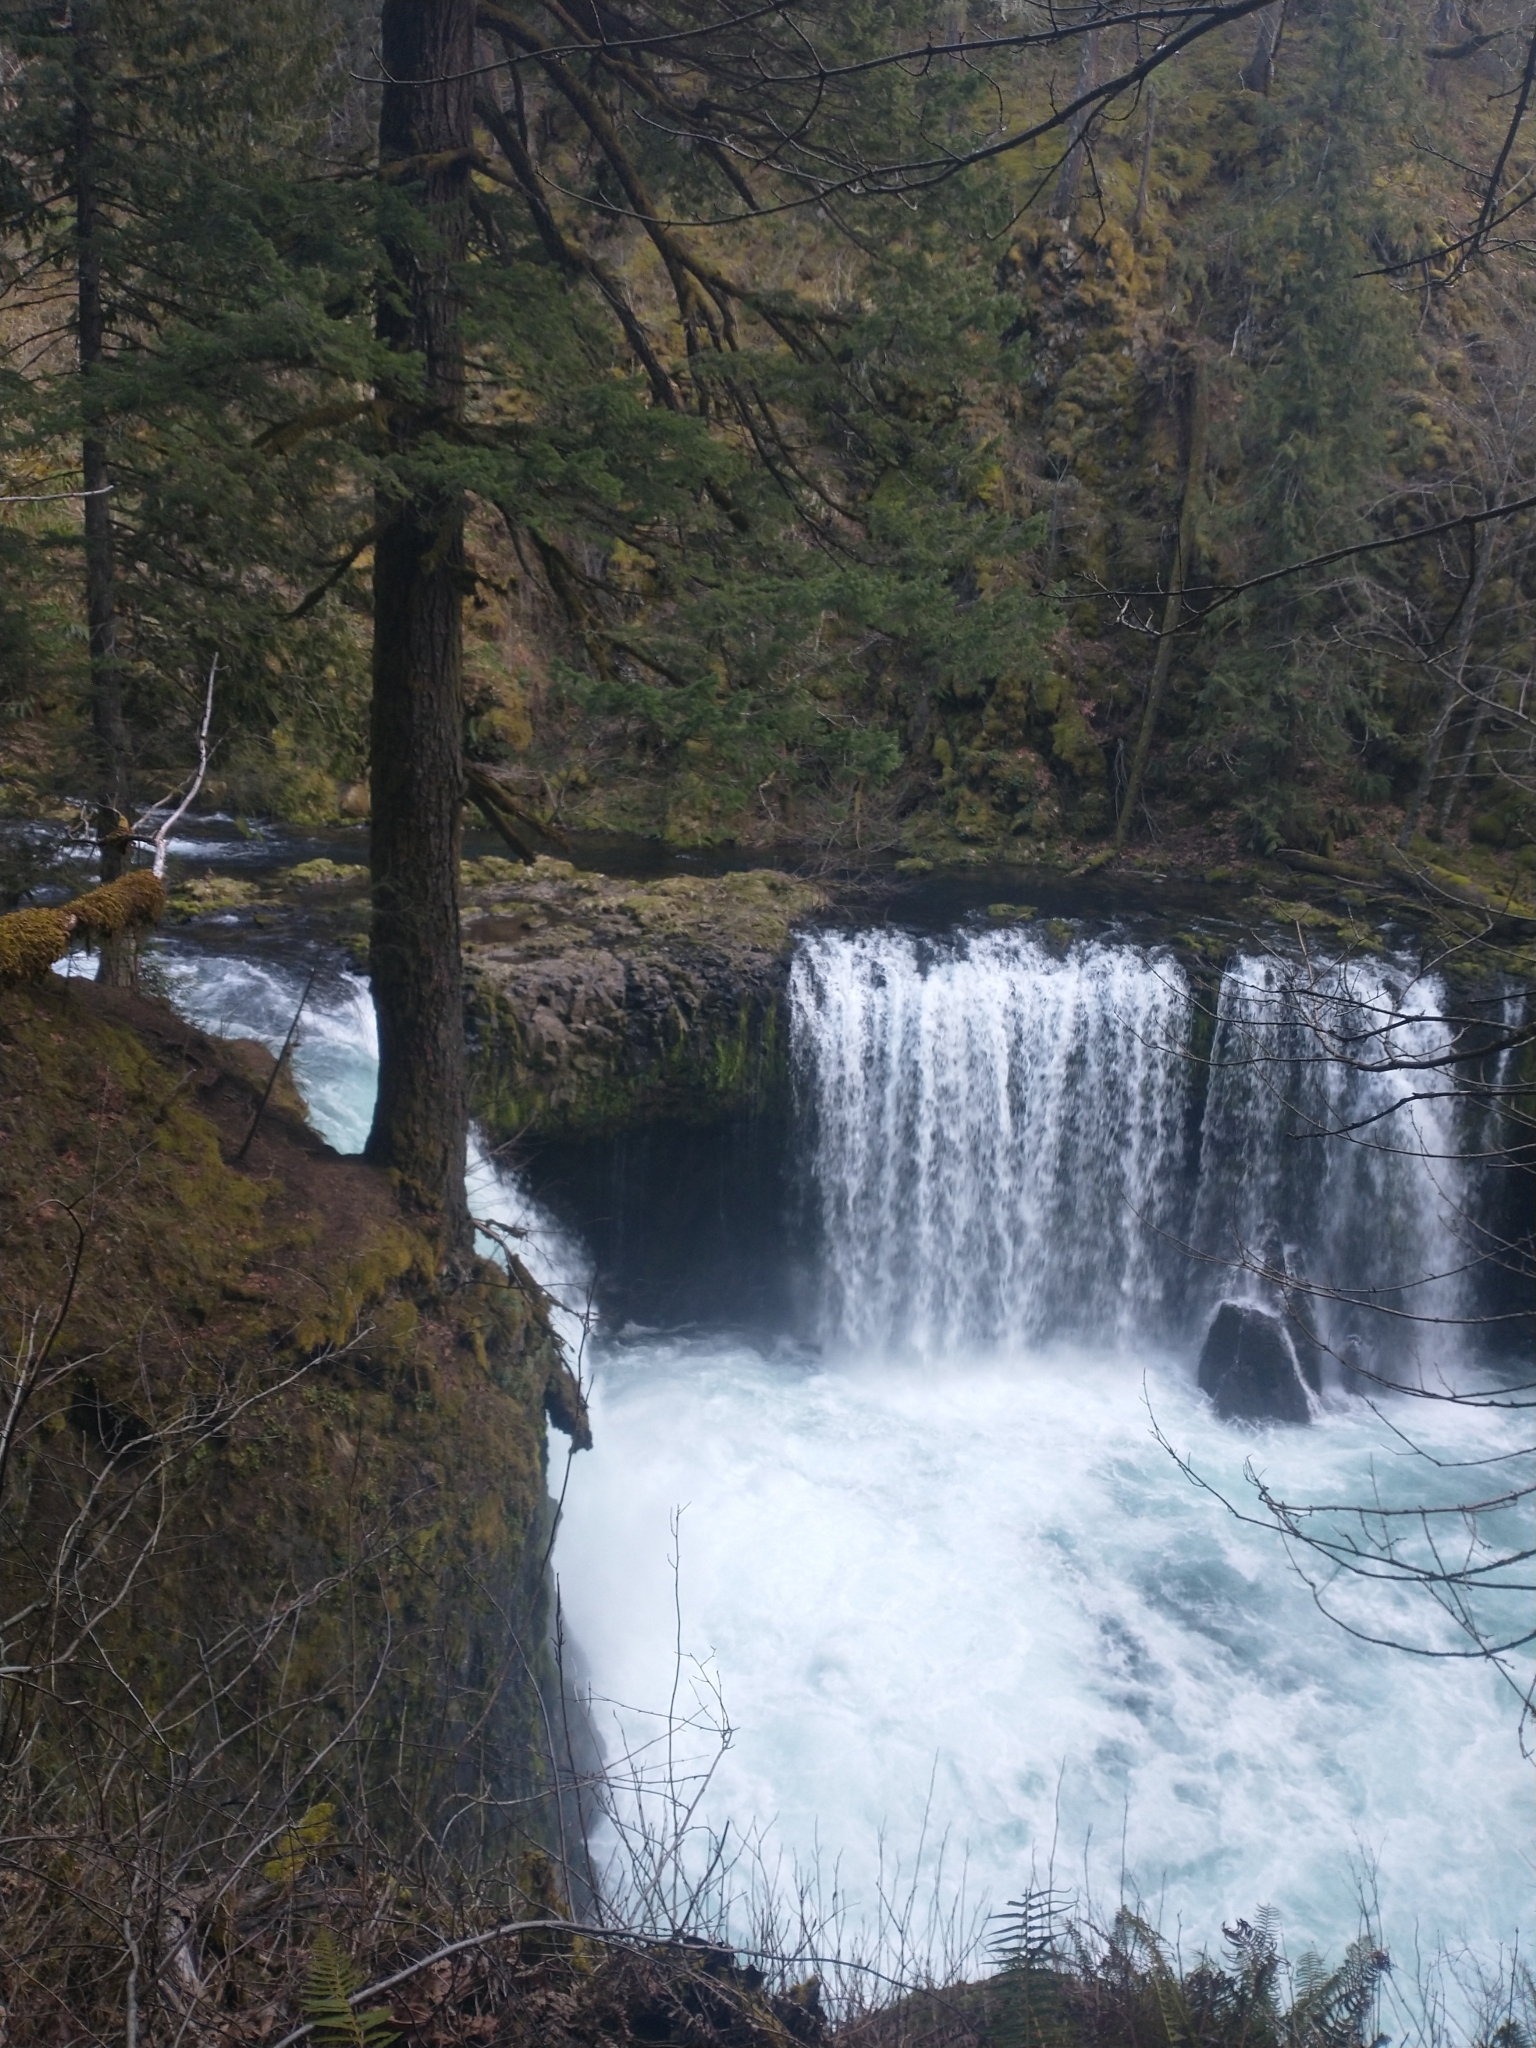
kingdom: Plantae
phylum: Tracheophyta
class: Pinopsida
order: Pinales
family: Pinaceae
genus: Pseudotsuga
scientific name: Pseudotsuga menziesii
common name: Douglas fir
